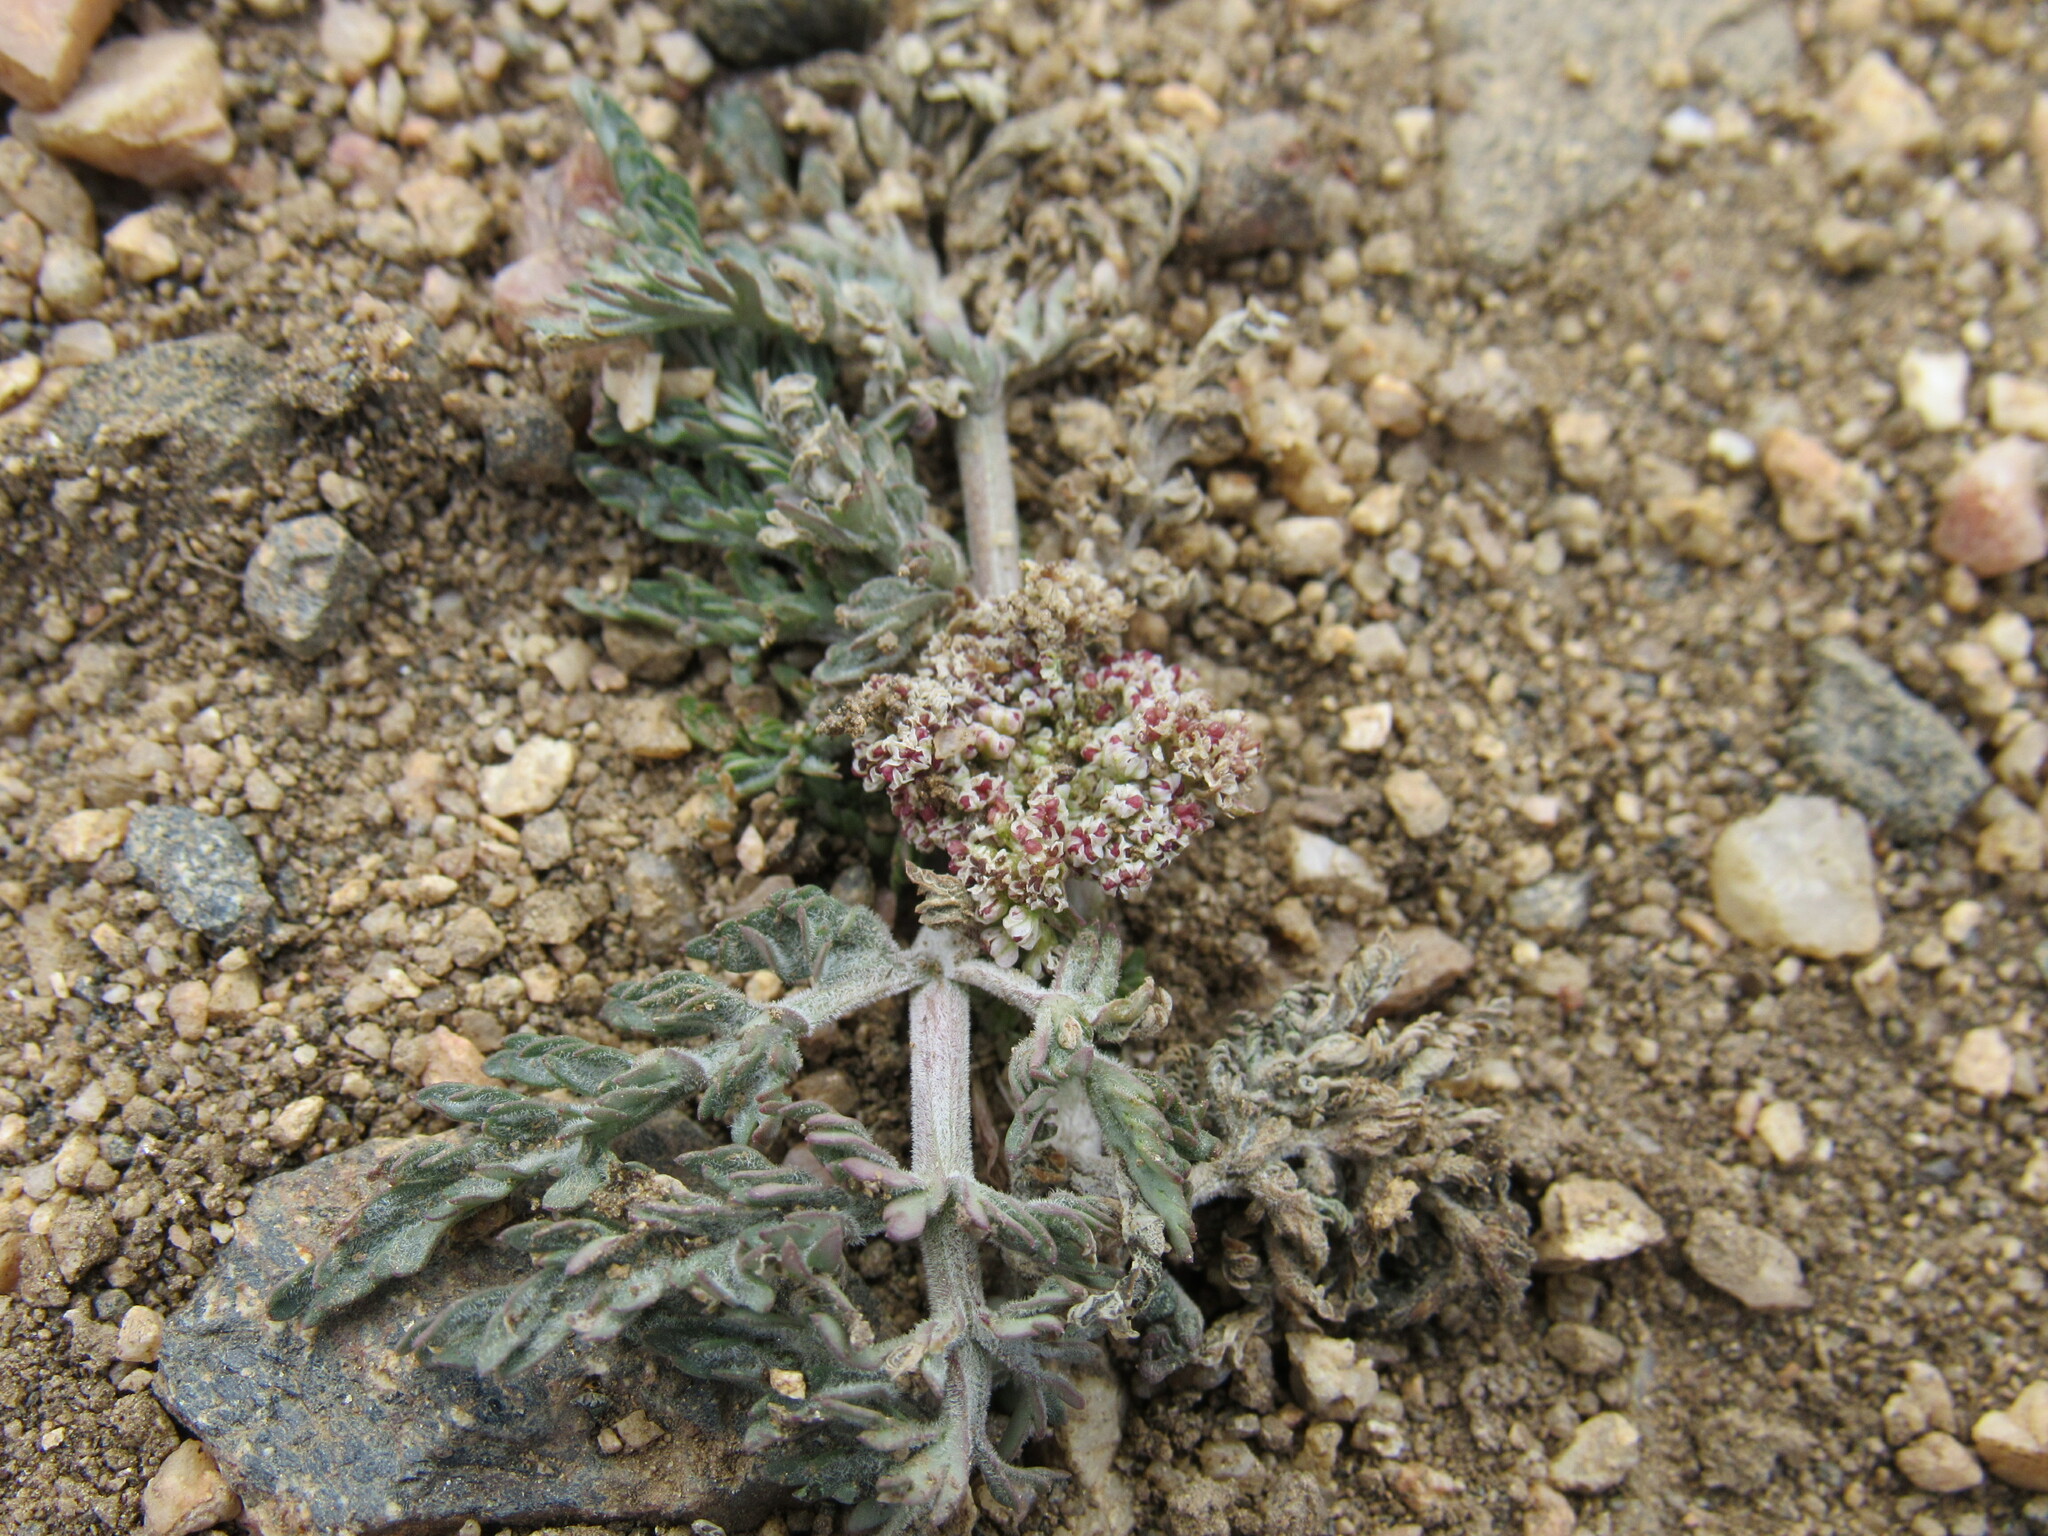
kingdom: Plantae
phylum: Tracheophyta
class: Magnoliopsida
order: Apiales
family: Apiaceae
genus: Lomatium
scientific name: Lomatium orientale
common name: Eastern cous
